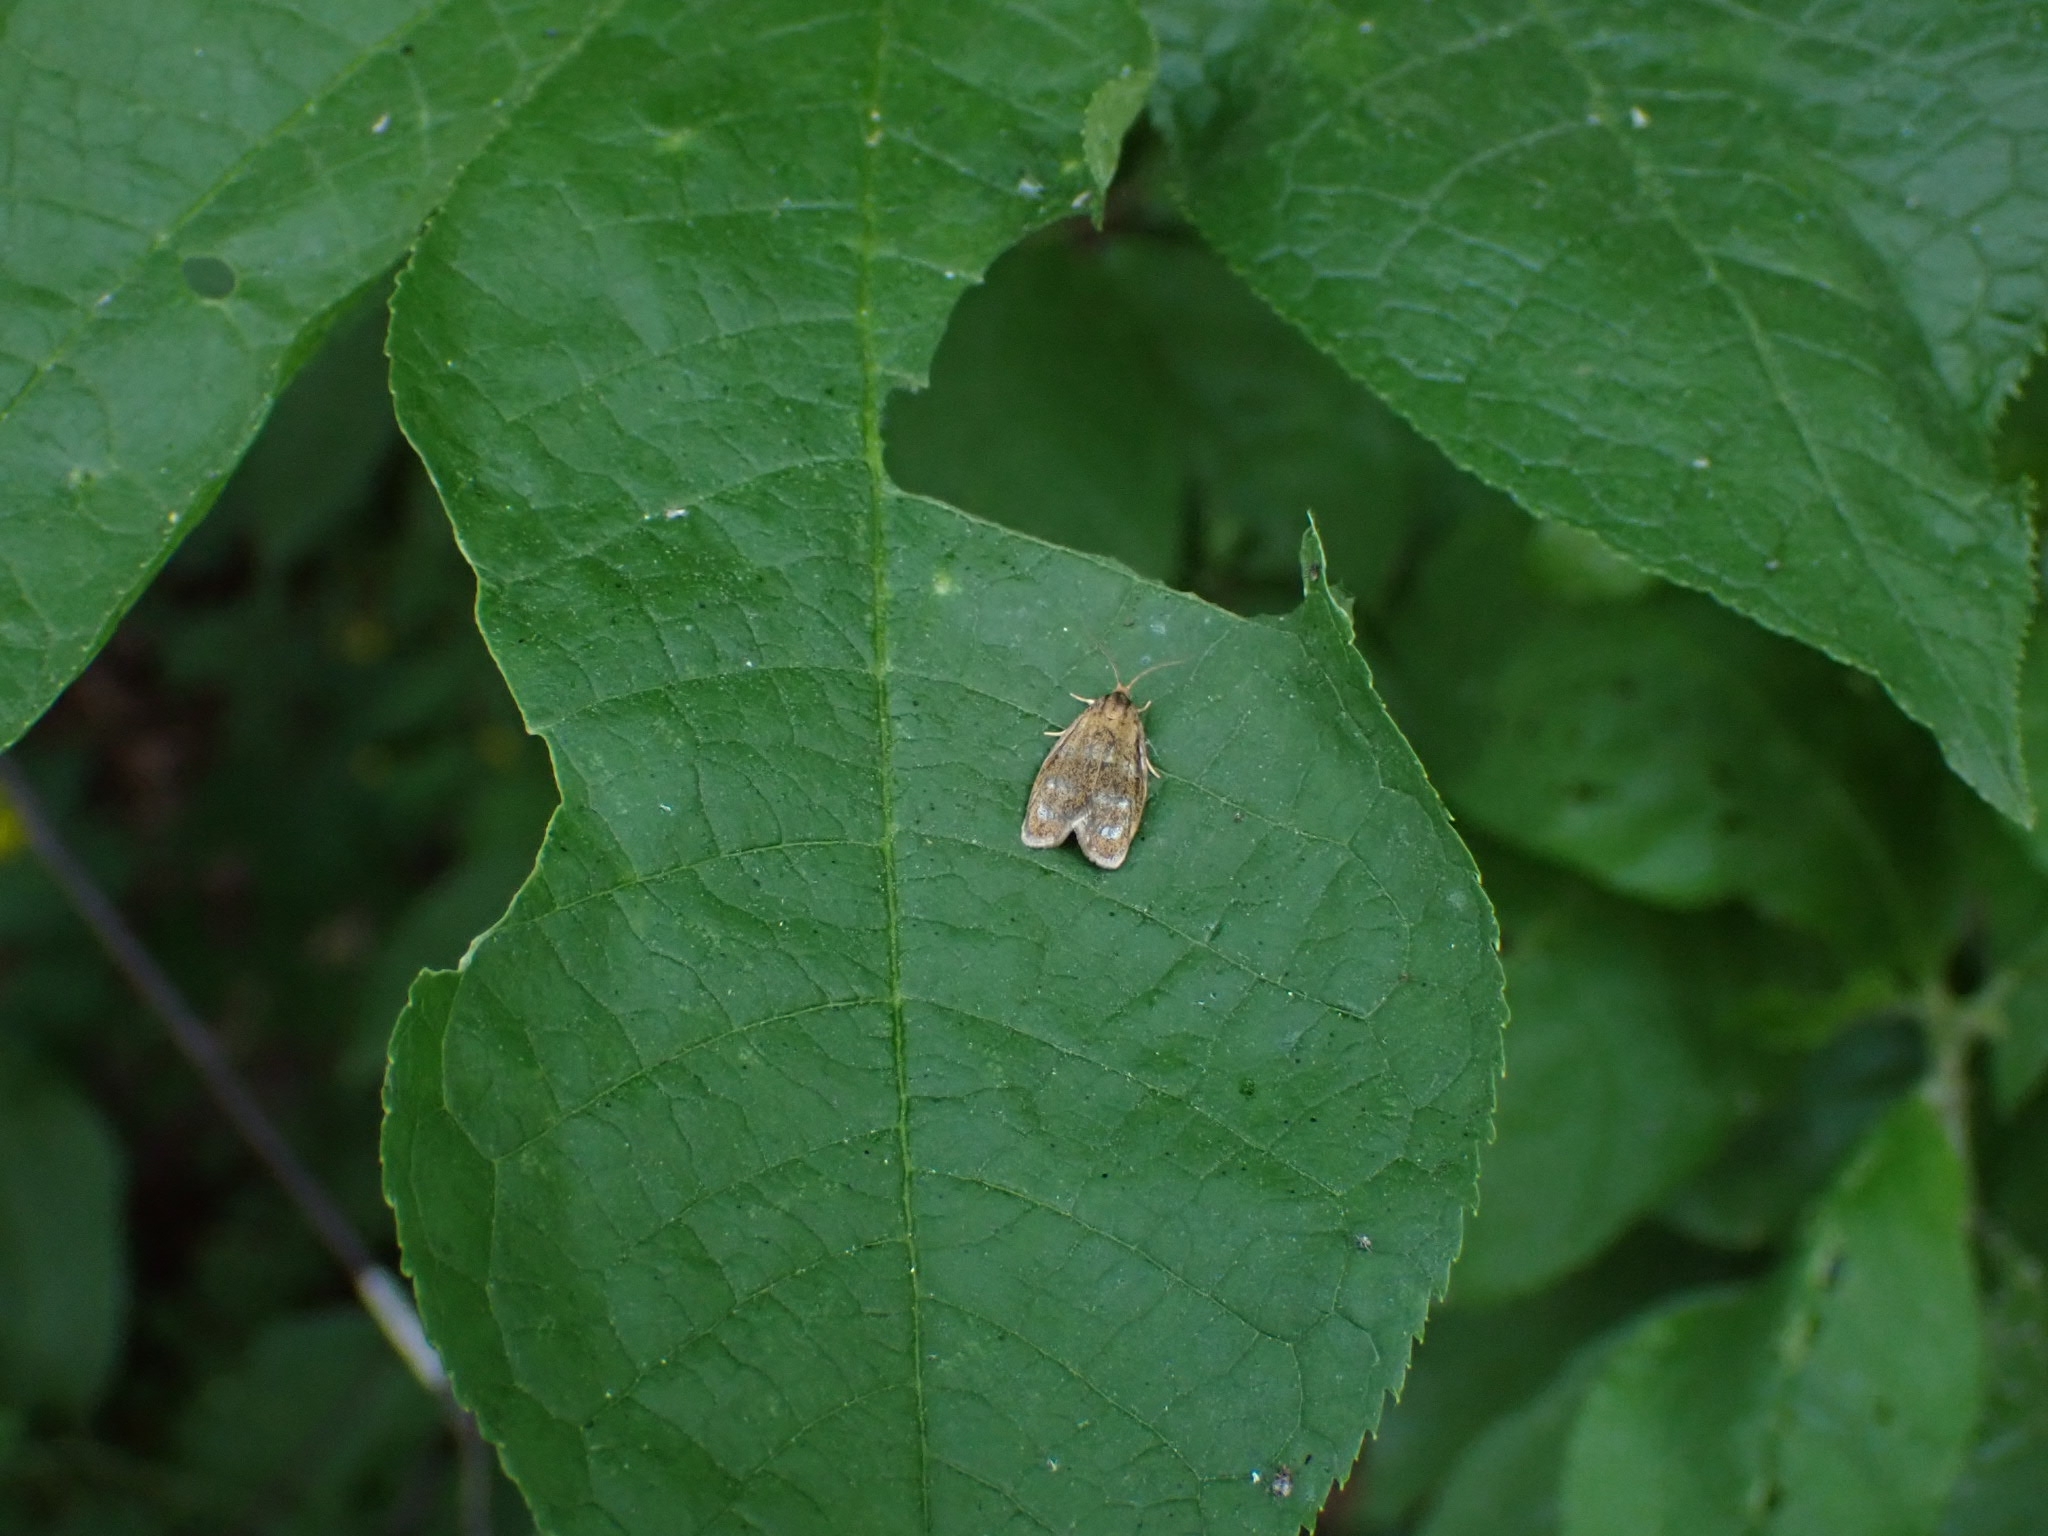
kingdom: Animalia
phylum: Arthropoda
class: Insecta
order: Lepidoptera
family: Tortricidae
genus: Ptycholoma
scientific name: Ptycholoma lecheana
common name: Leches twist moth
